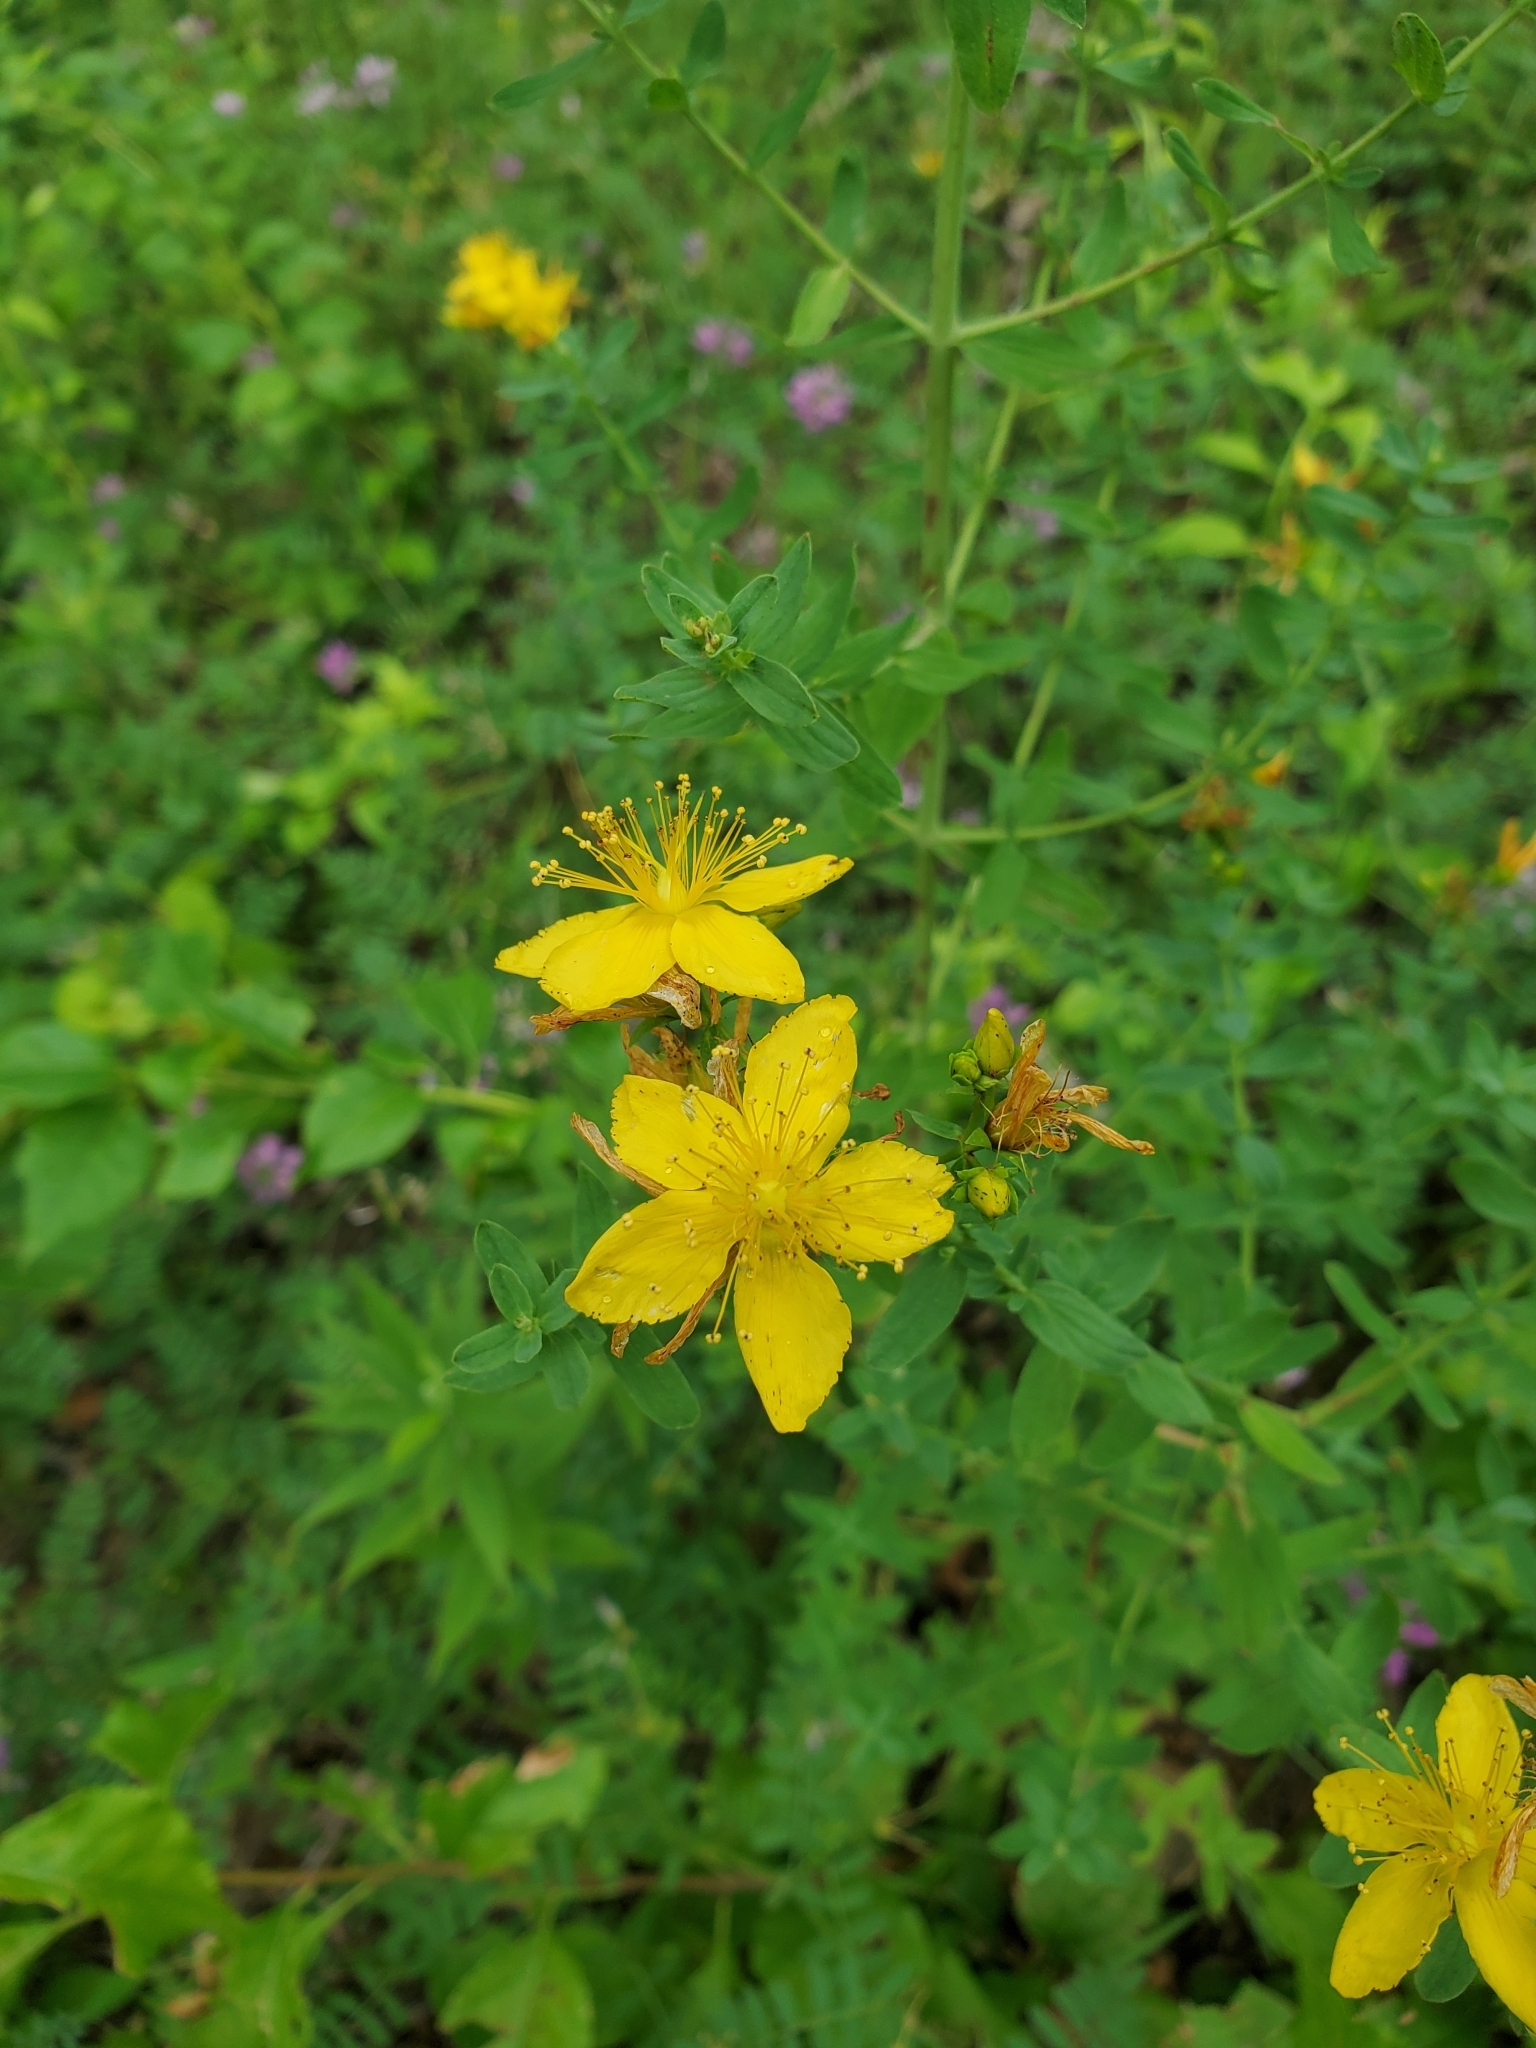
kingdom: Plantae
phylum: Tracheophyta
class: Magnoliopsida
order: Malpighiales
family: Hypericaceae
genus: Hypericum
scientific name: Hypericum perforatum
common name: Common st. johnswort
